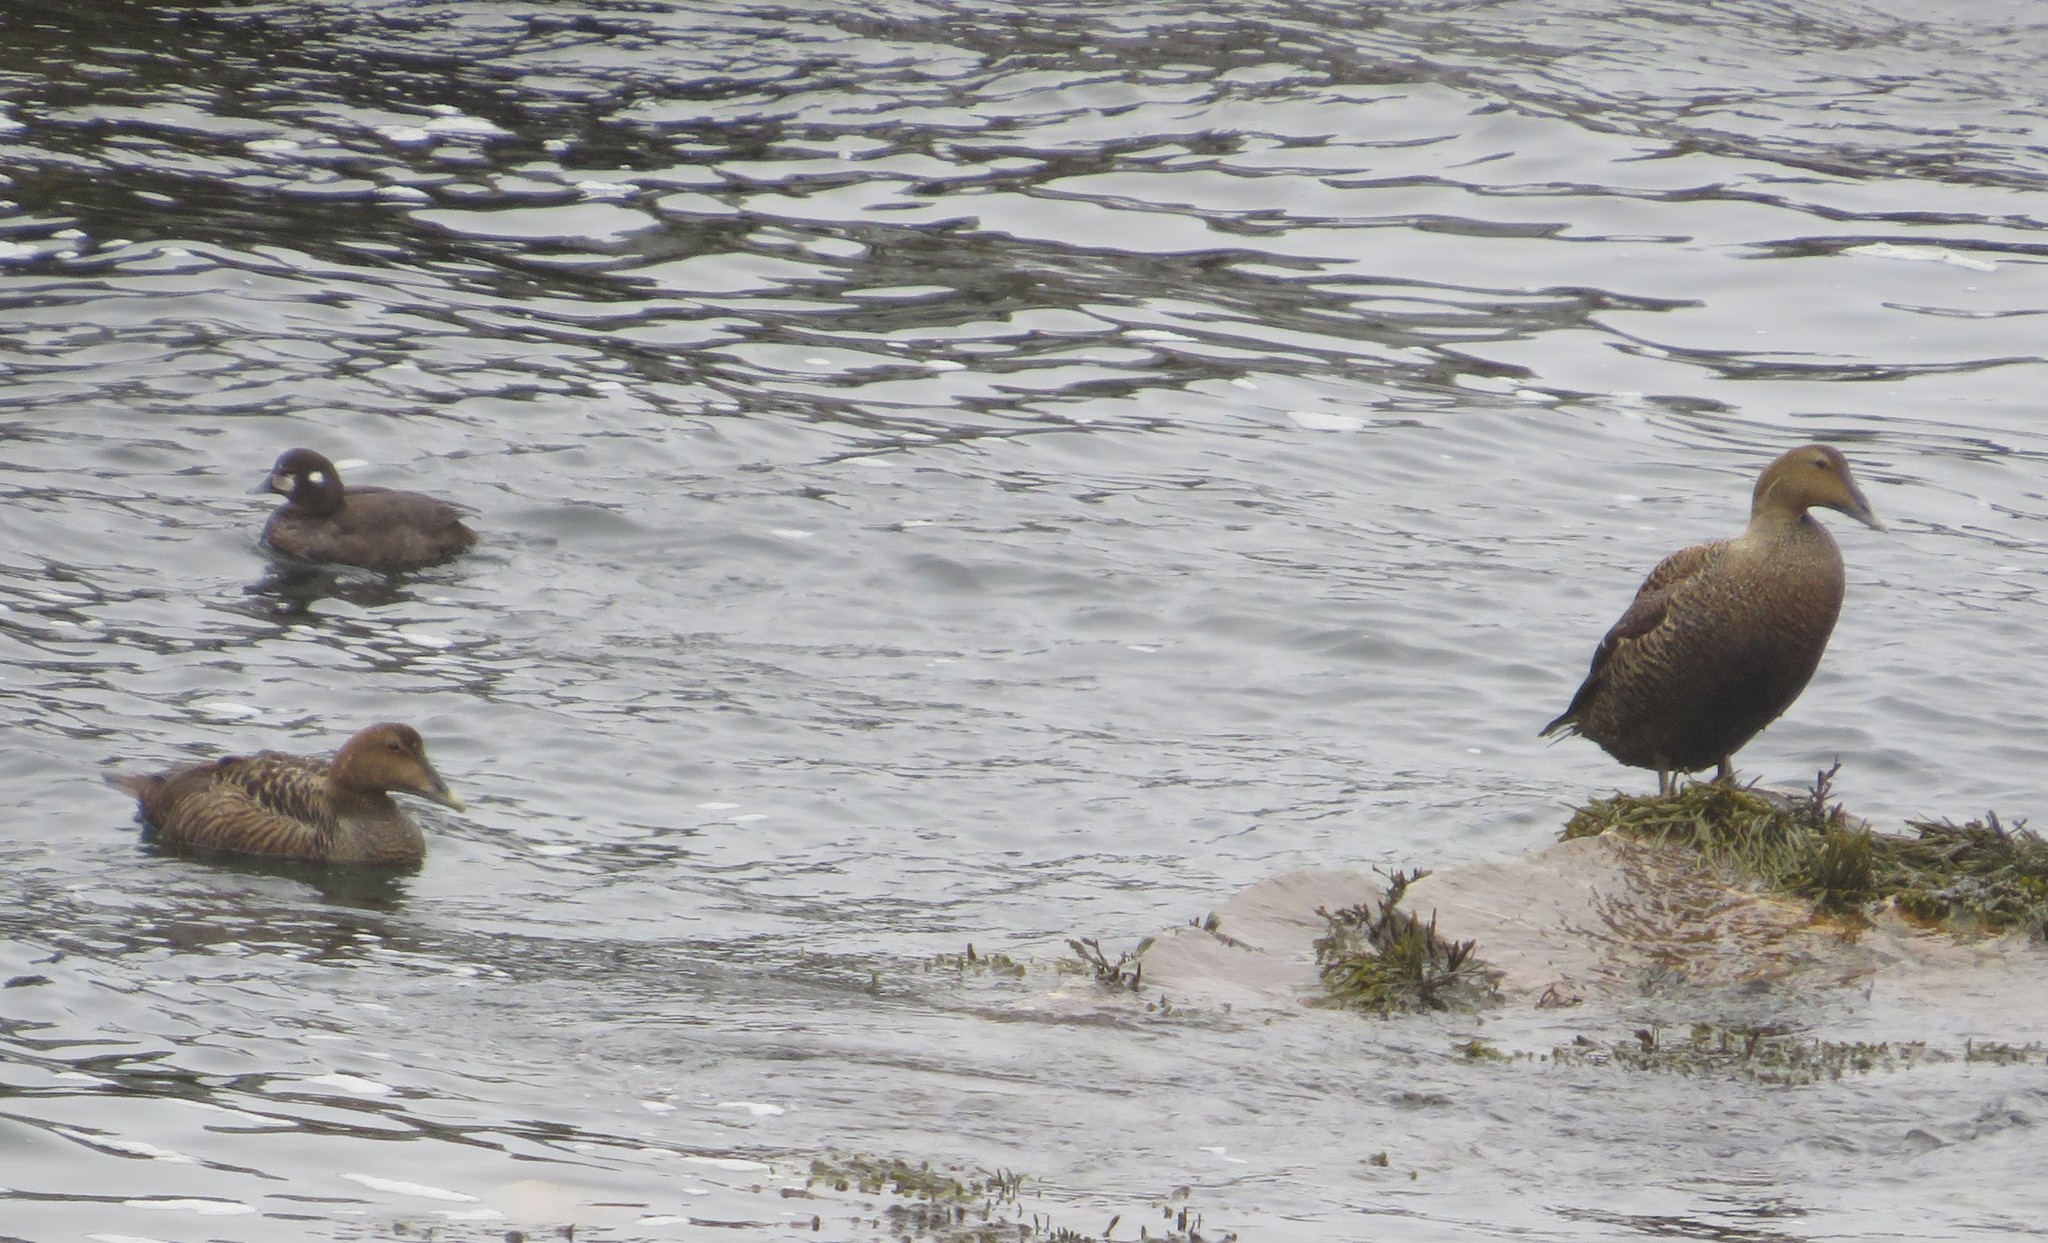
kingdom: Animalia
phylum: Chordata
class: Aves
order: Anseriformes
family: Anatidae
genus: Somateria
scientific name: Somateria mollissima
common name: Common eider
